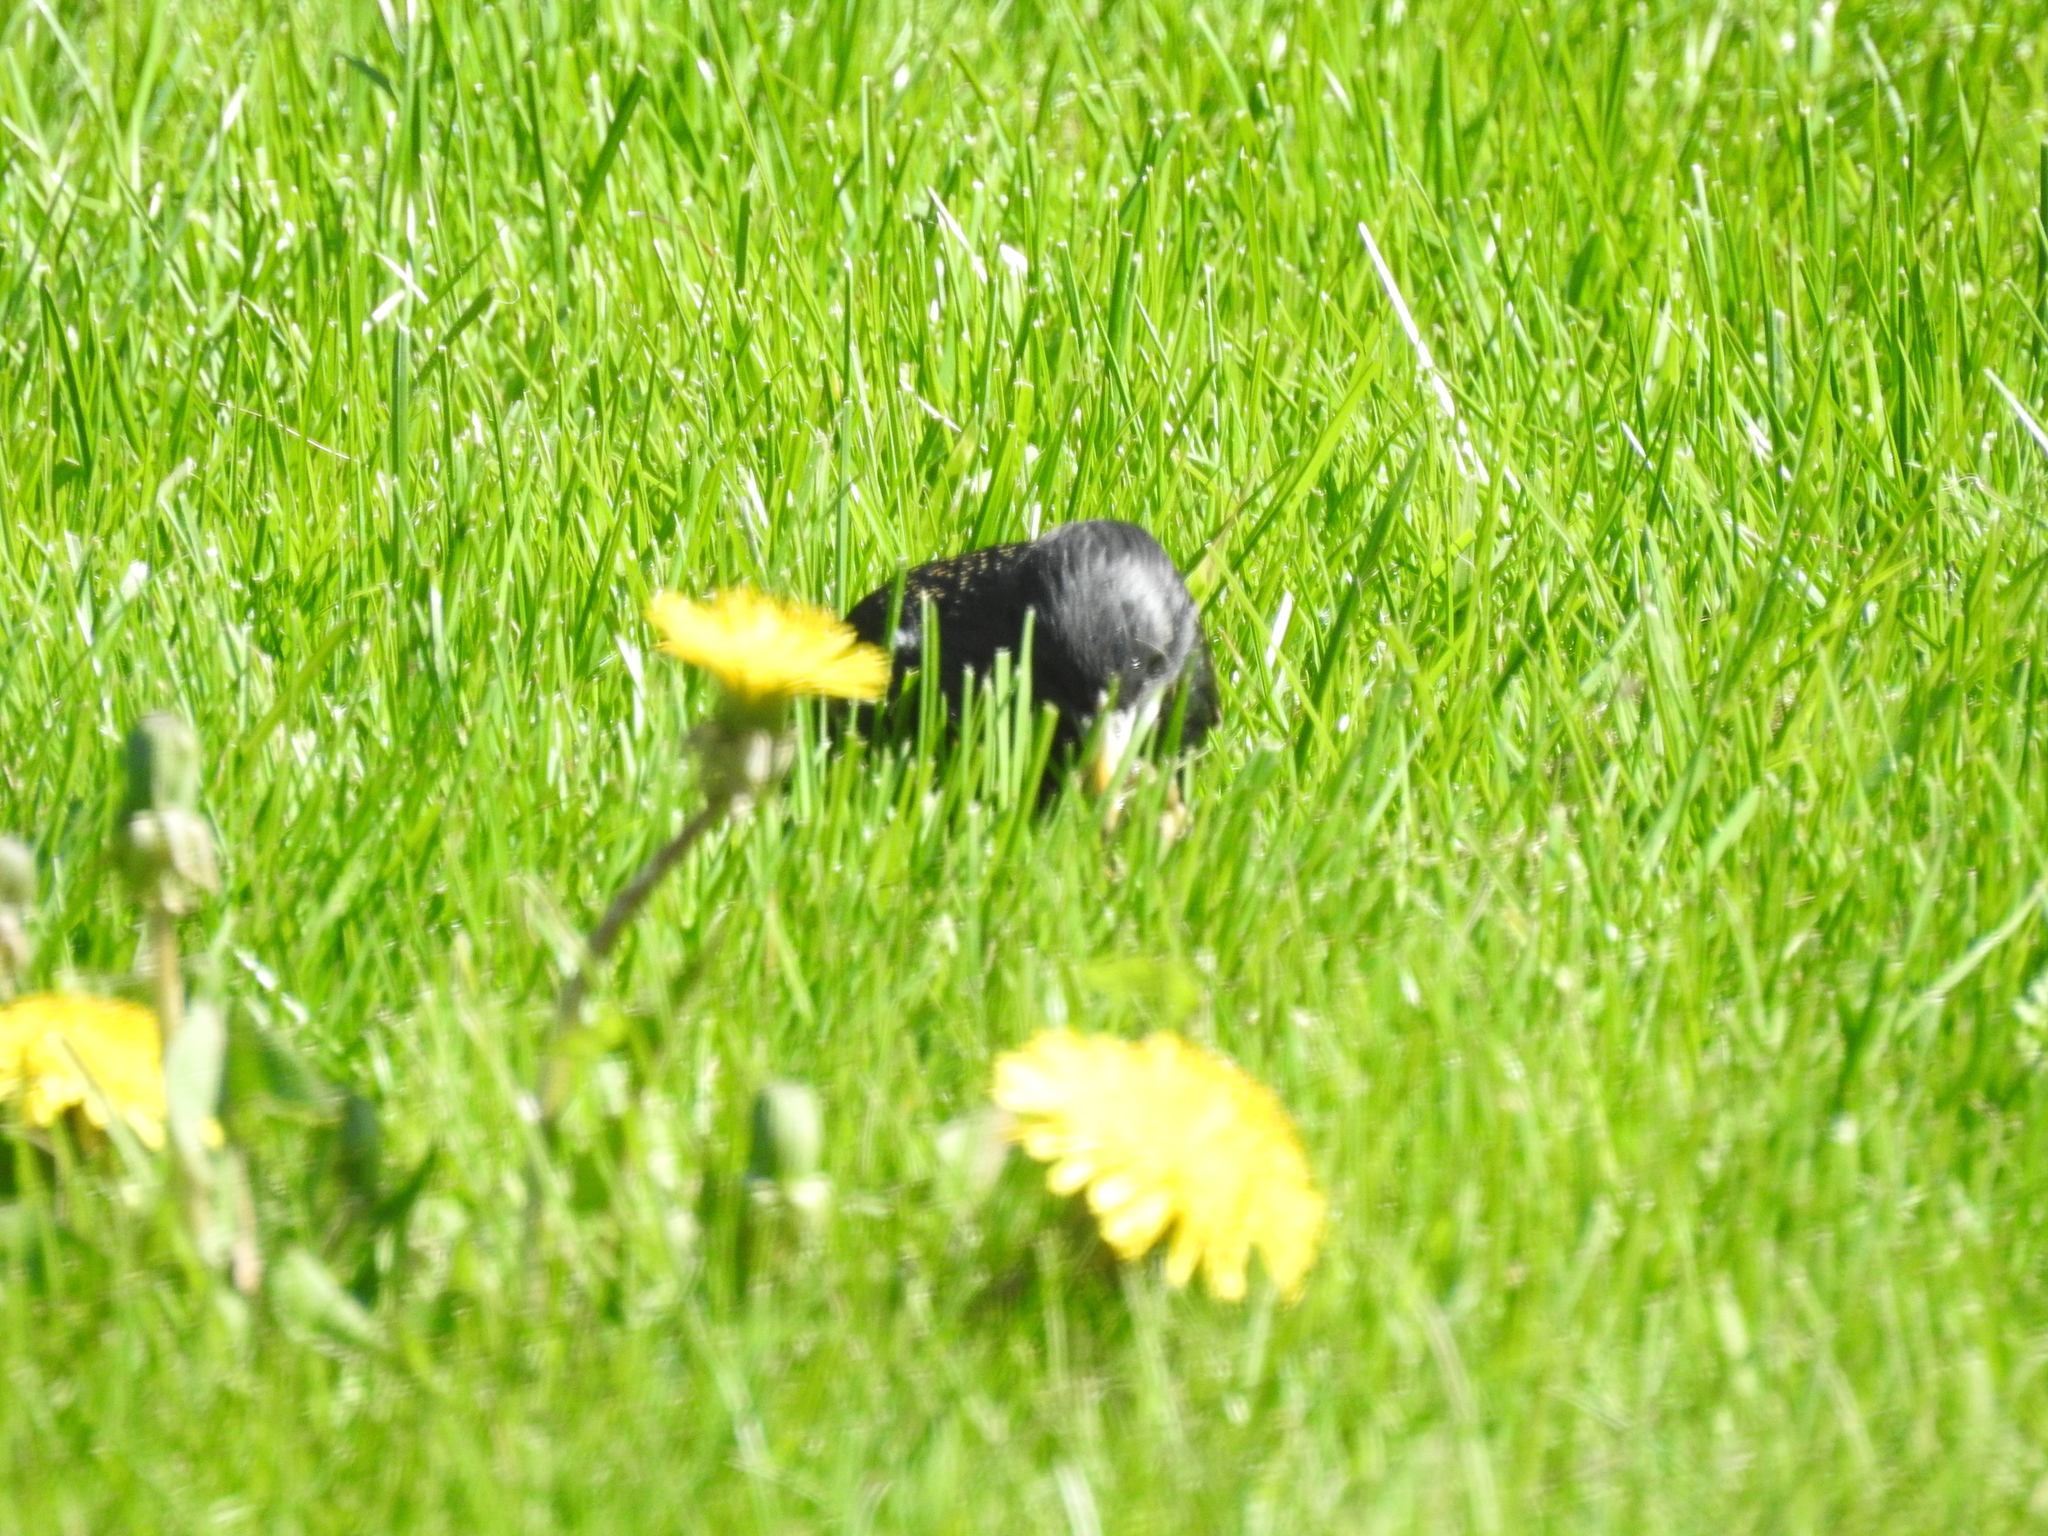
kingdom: Animalia
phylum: Chordata
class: Aves
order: Passeriformes
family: Sturnidae
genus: Sturnus
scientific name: Sturnus vulgaris
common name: Common starling
